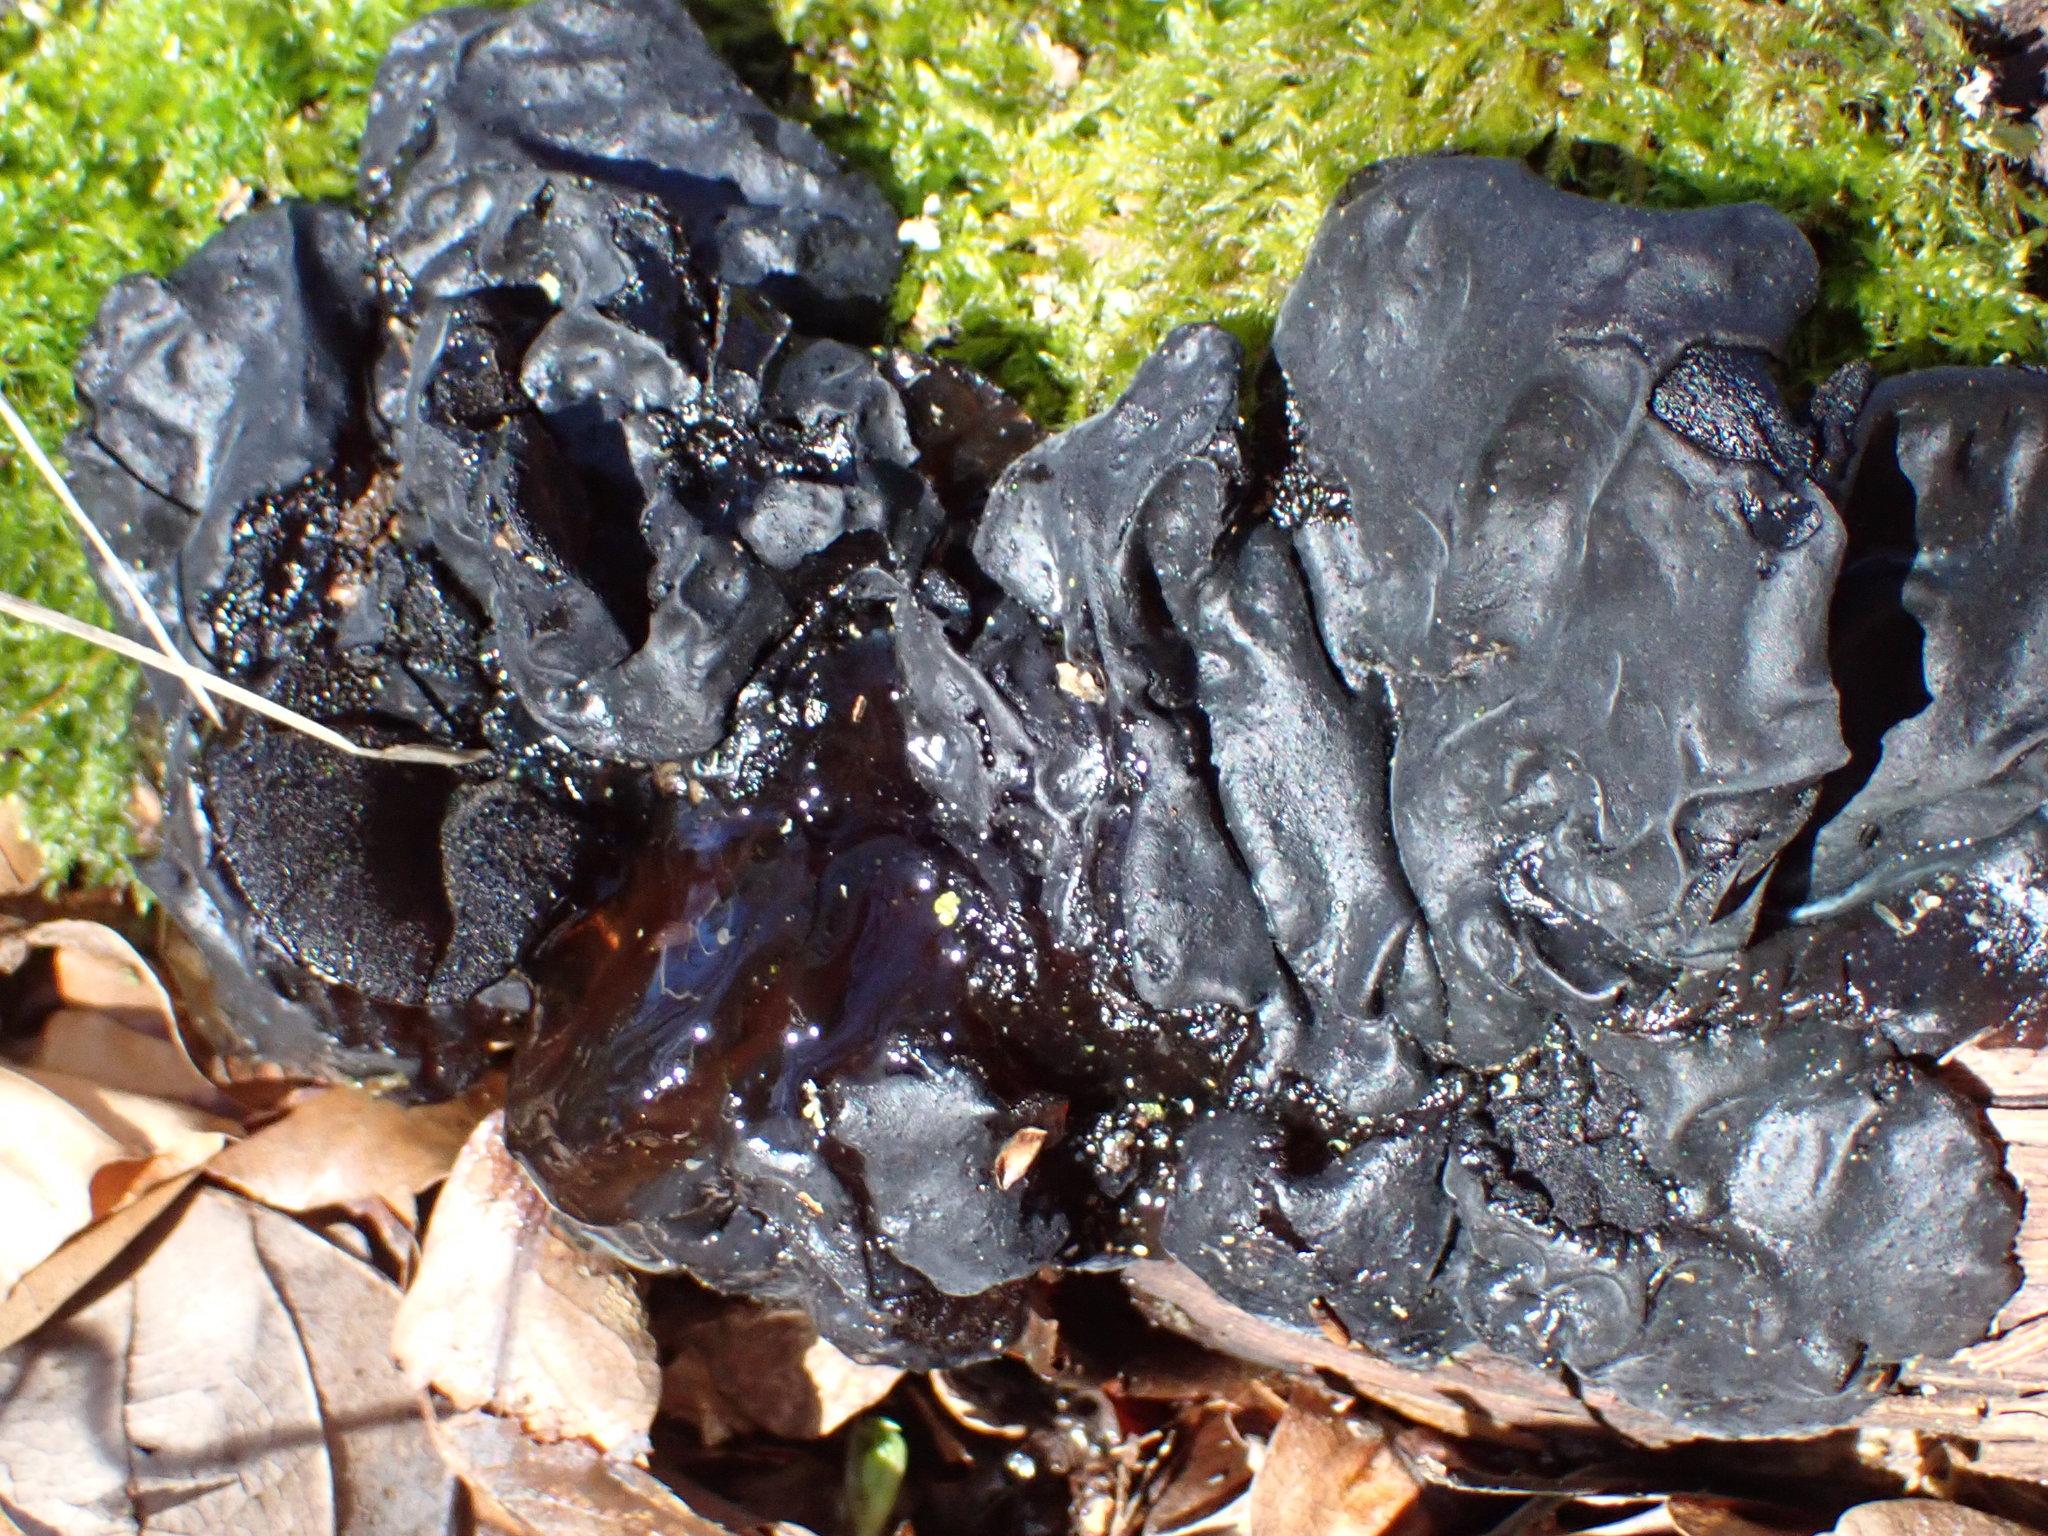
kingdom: Fungi
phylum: Basidiomycota
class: Agaricomycetes
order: Auriculariales
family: Auriculariaceae
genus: Exidia
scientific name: Exidia glandulosa
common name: Witches' butter
